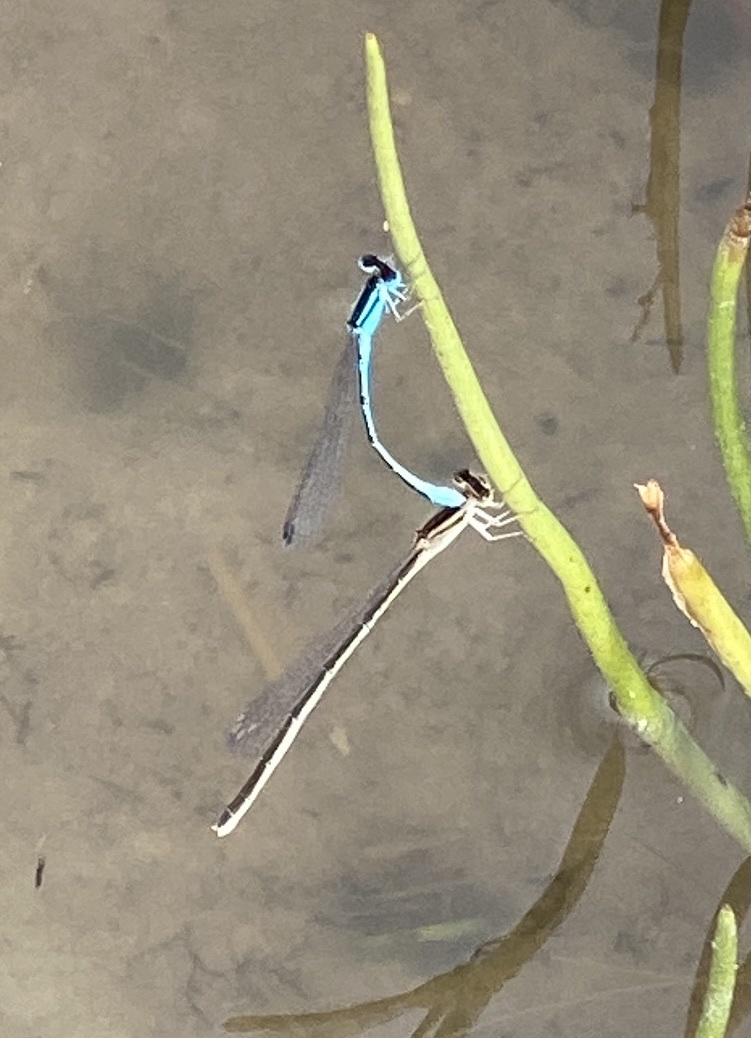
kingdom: Animalia
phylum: Arthropoda
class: Insecta
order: Odonata
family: Coenagrionidae
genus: Africallagma
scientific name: Africallagma glaucum
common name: Swamp bluet
